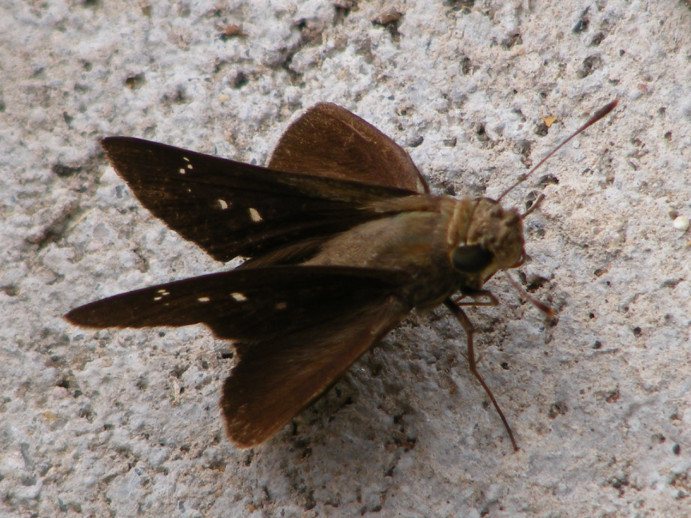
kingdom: Animalia
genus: Torbenlarsenia
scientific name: Torbenlarsenia
